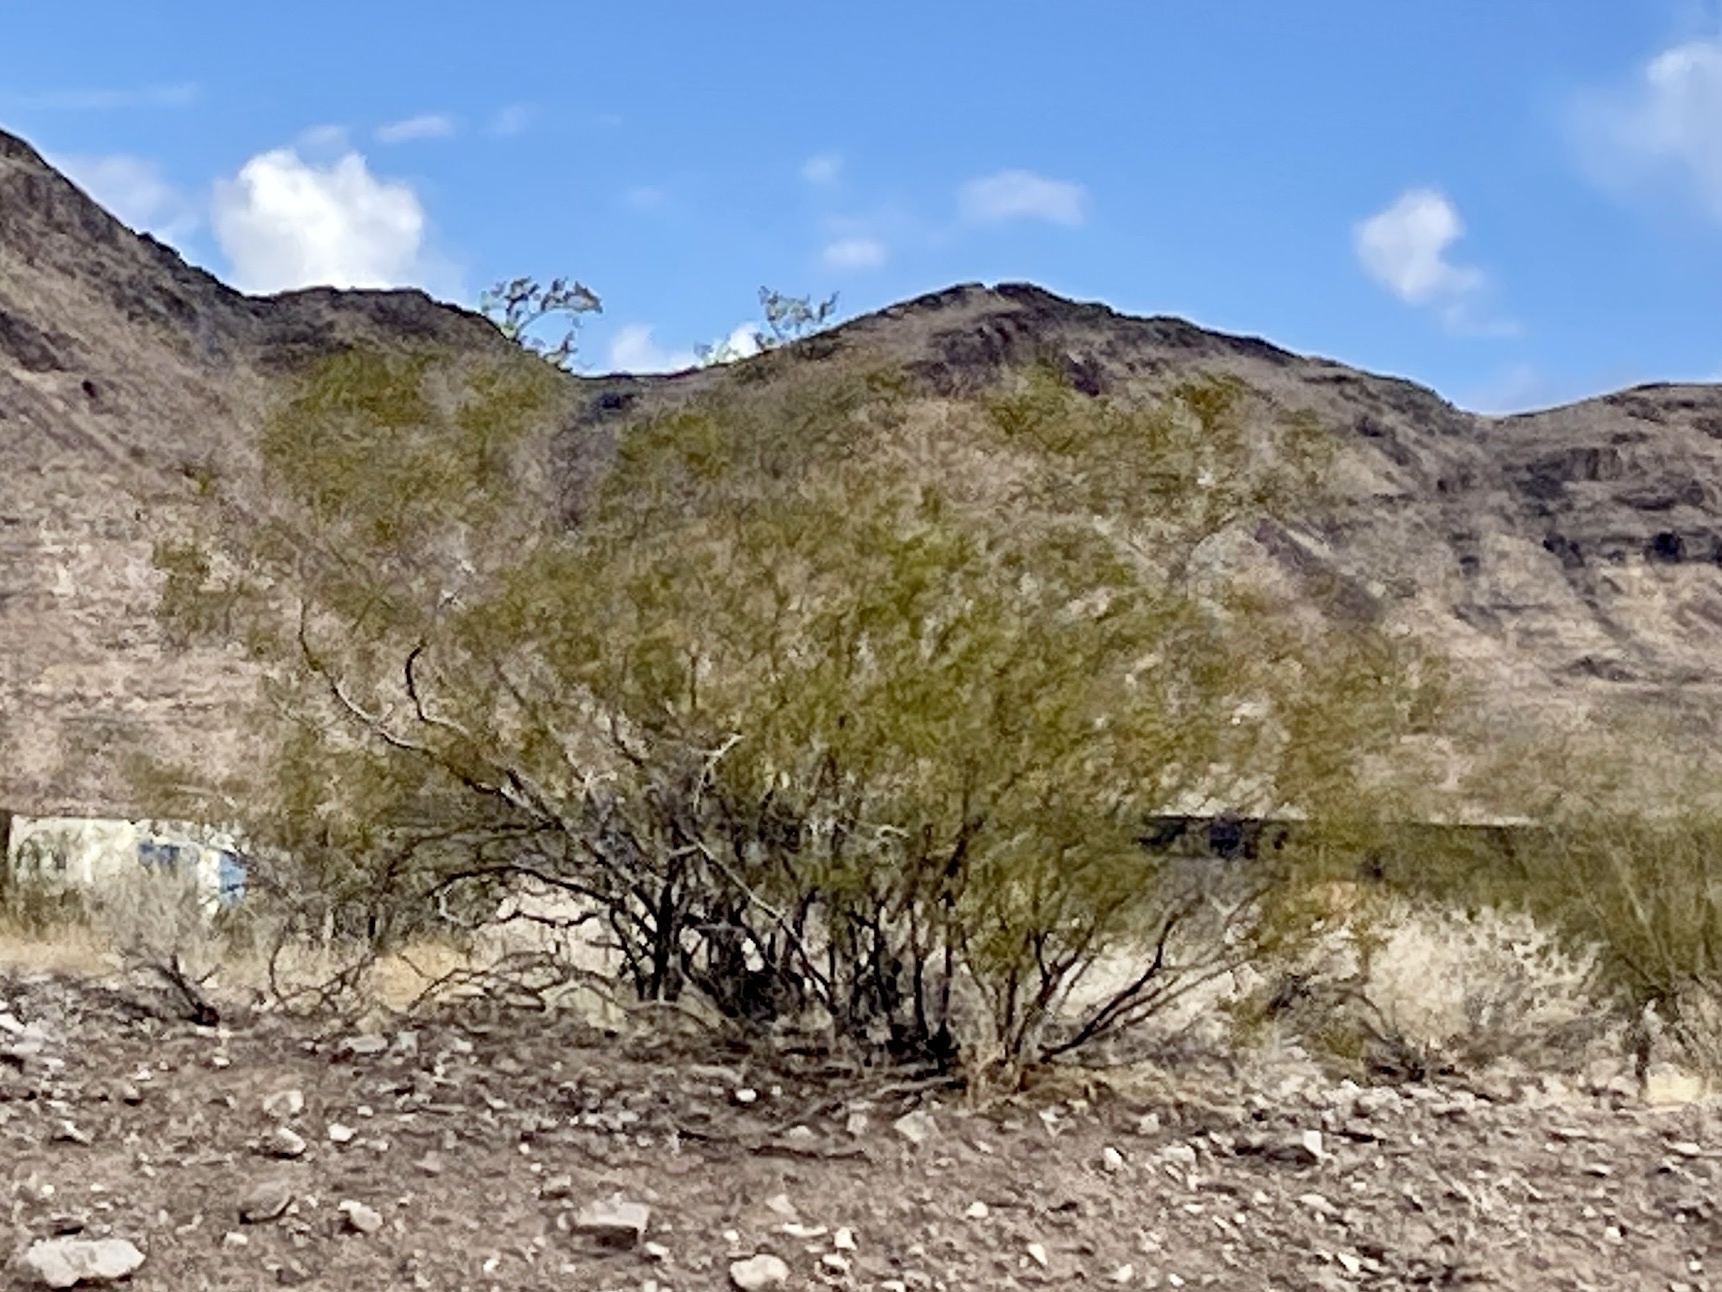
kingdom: Plantae
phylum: Tracheophyta
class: Magnoliopsida
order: Zygophyllales
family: Zygophyllaceae
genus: Larrea
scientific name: Larrea tridentata
